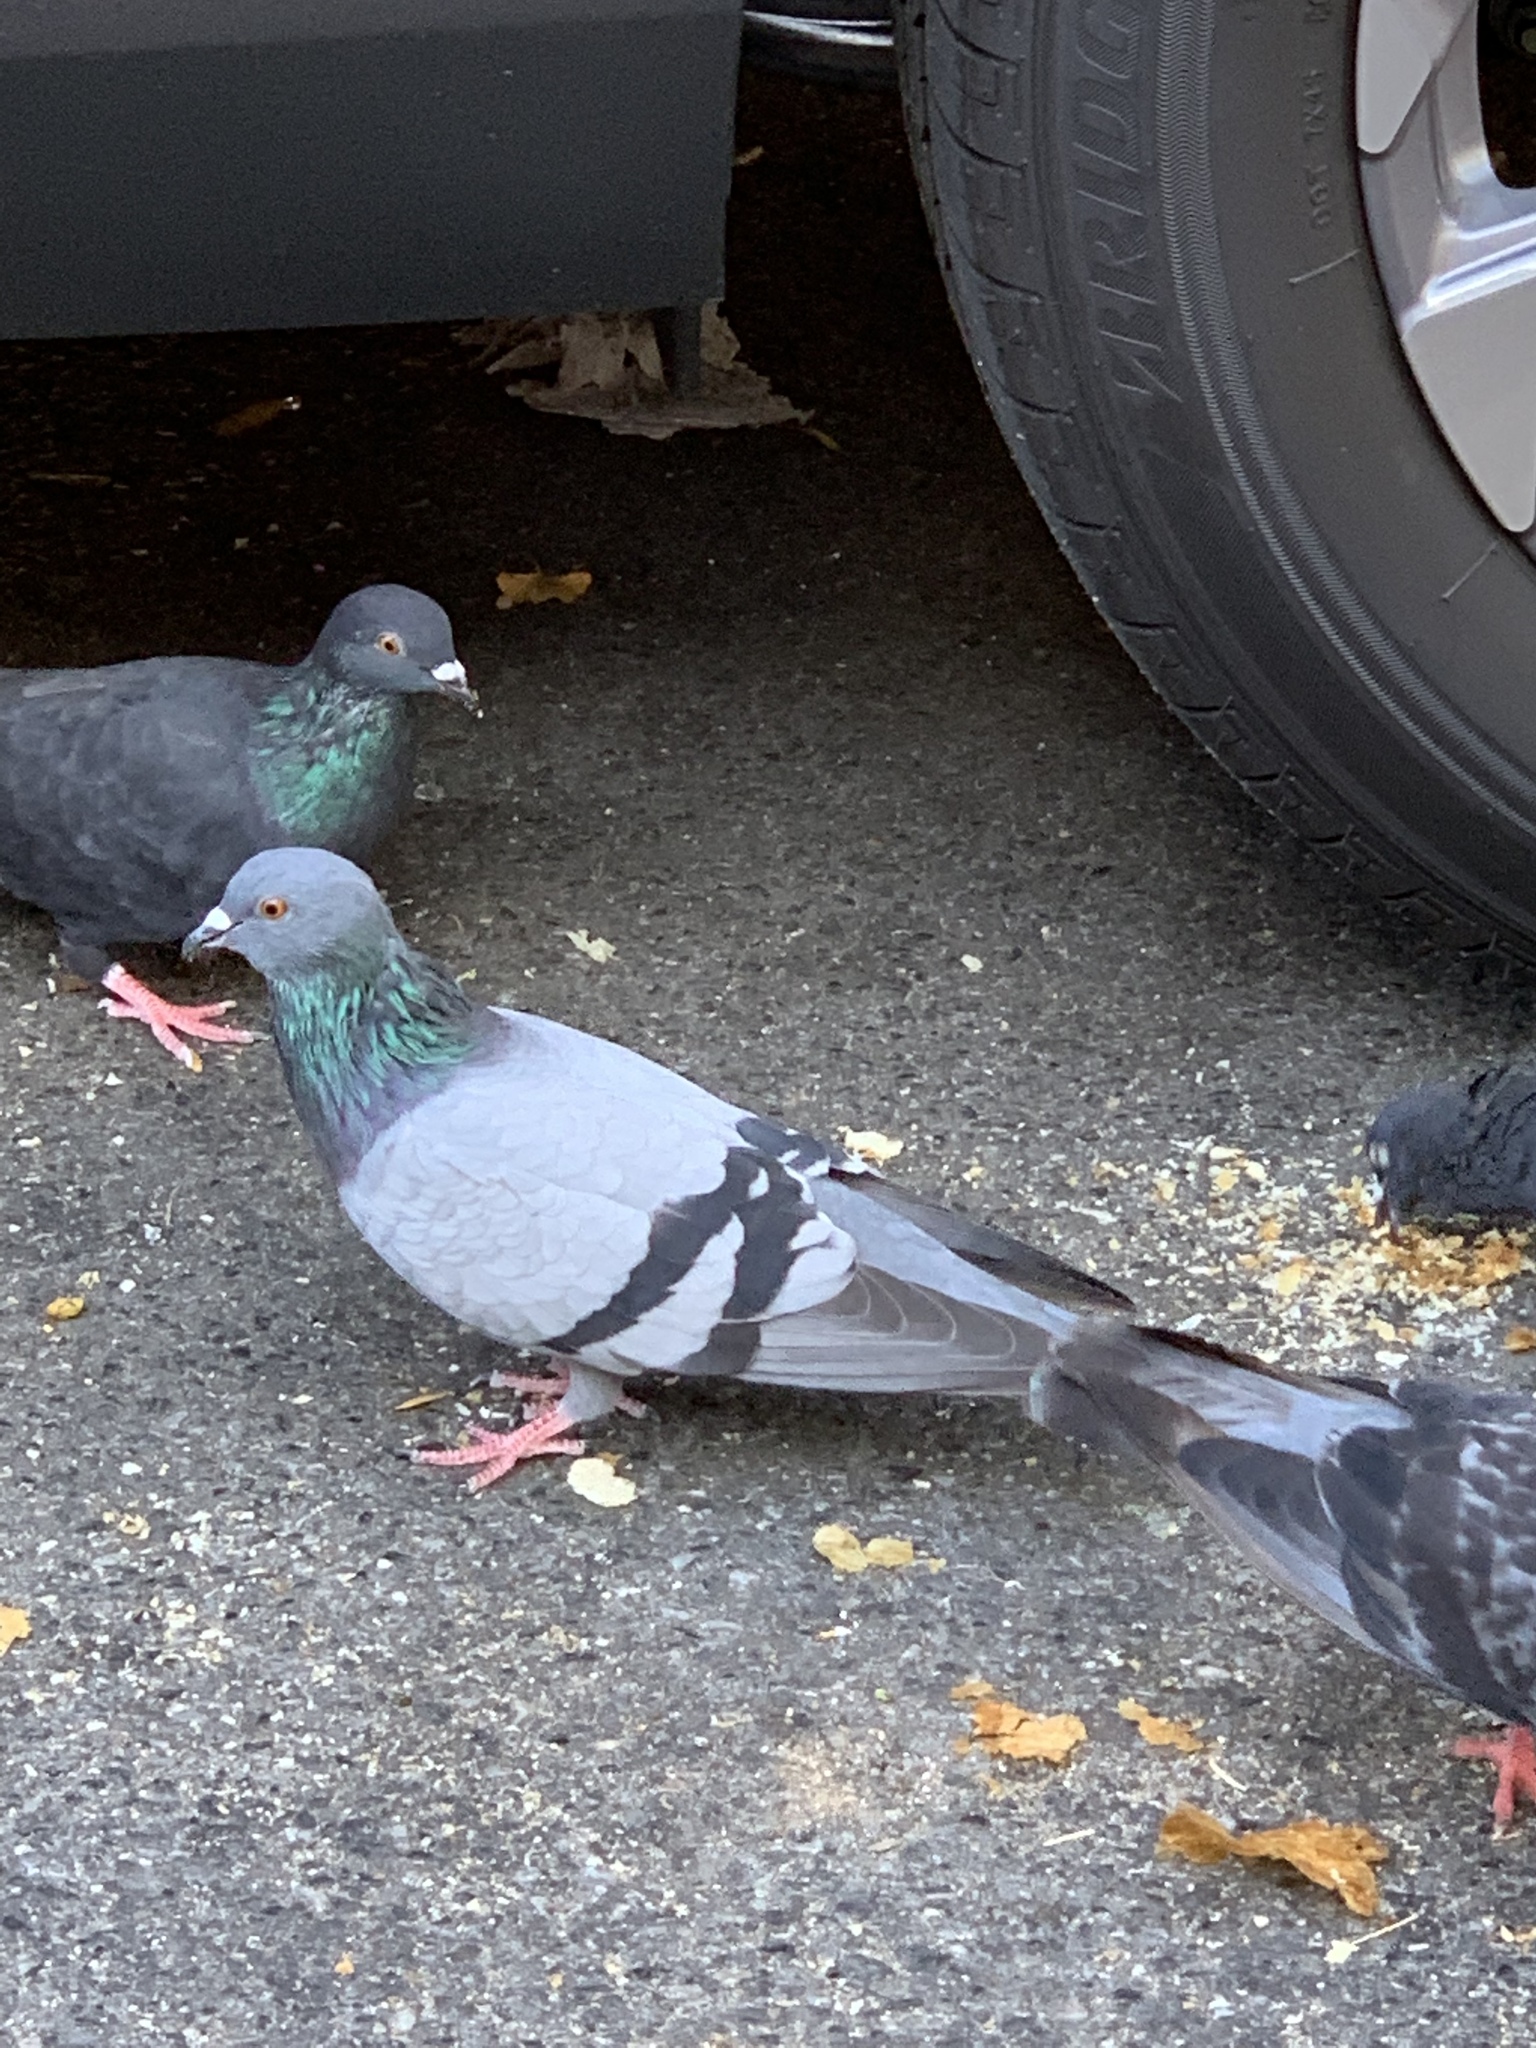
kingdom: Animalia
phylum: Chordata
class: Aves
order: Columbiformes
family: Columbidae
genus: Columba
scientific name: Columba livia
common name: Rock pigeon
